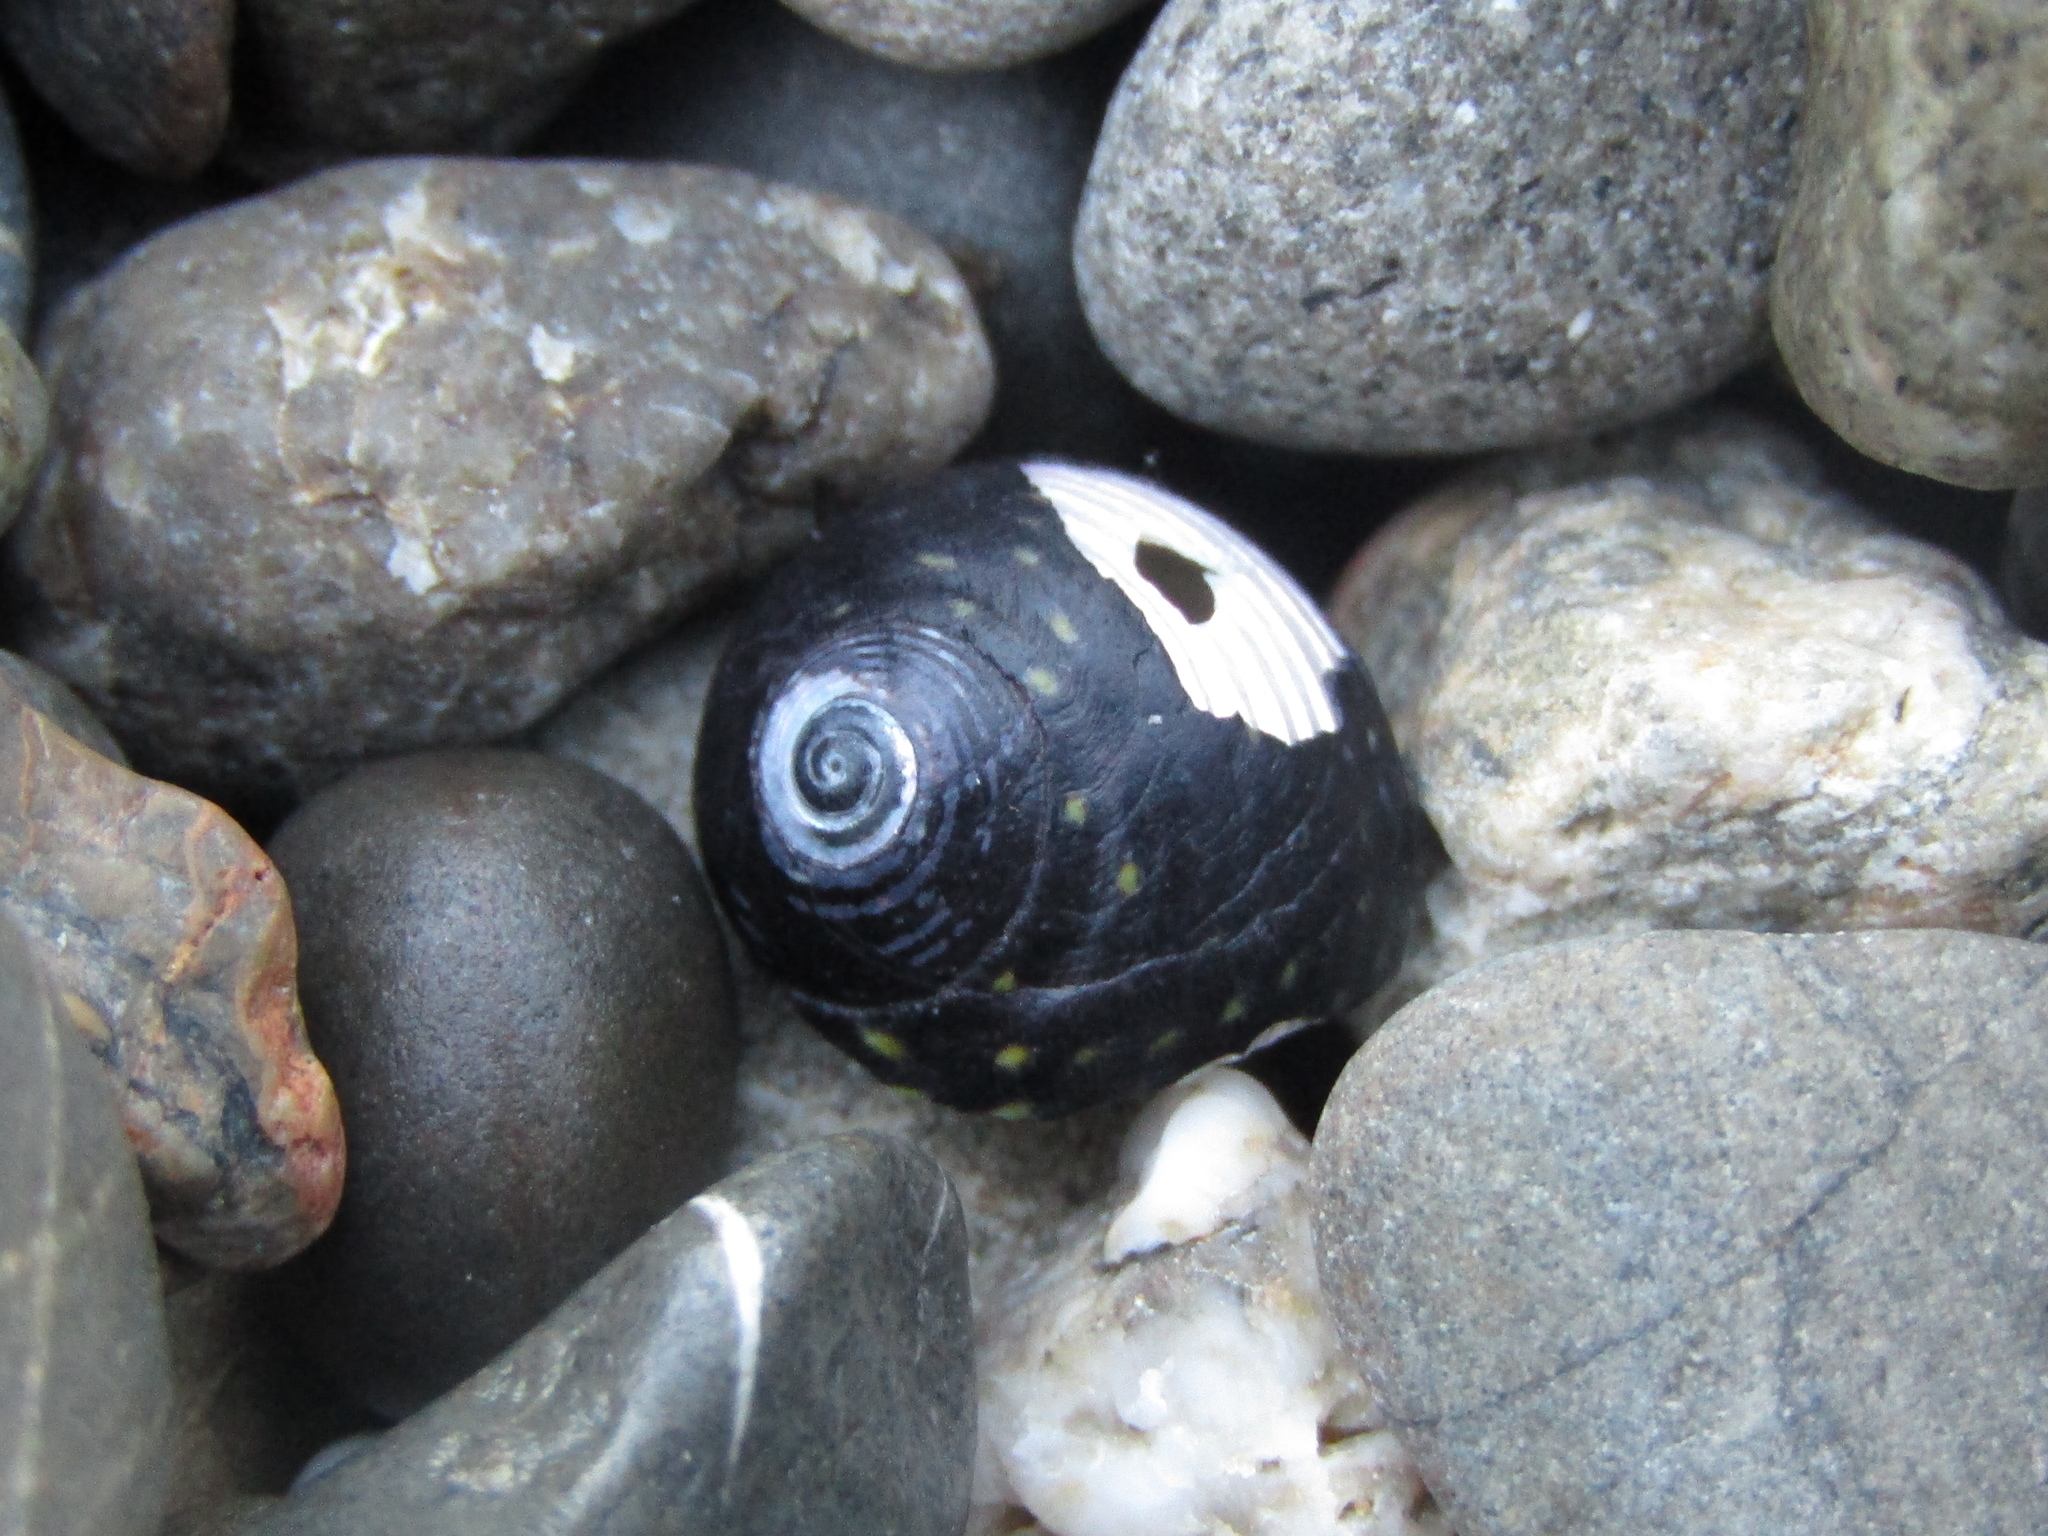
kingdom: Animalia
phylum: Mollusca
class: Gastropoda
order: Trochida
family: Trochidae
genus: Diloma
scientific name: Diloma aridum
